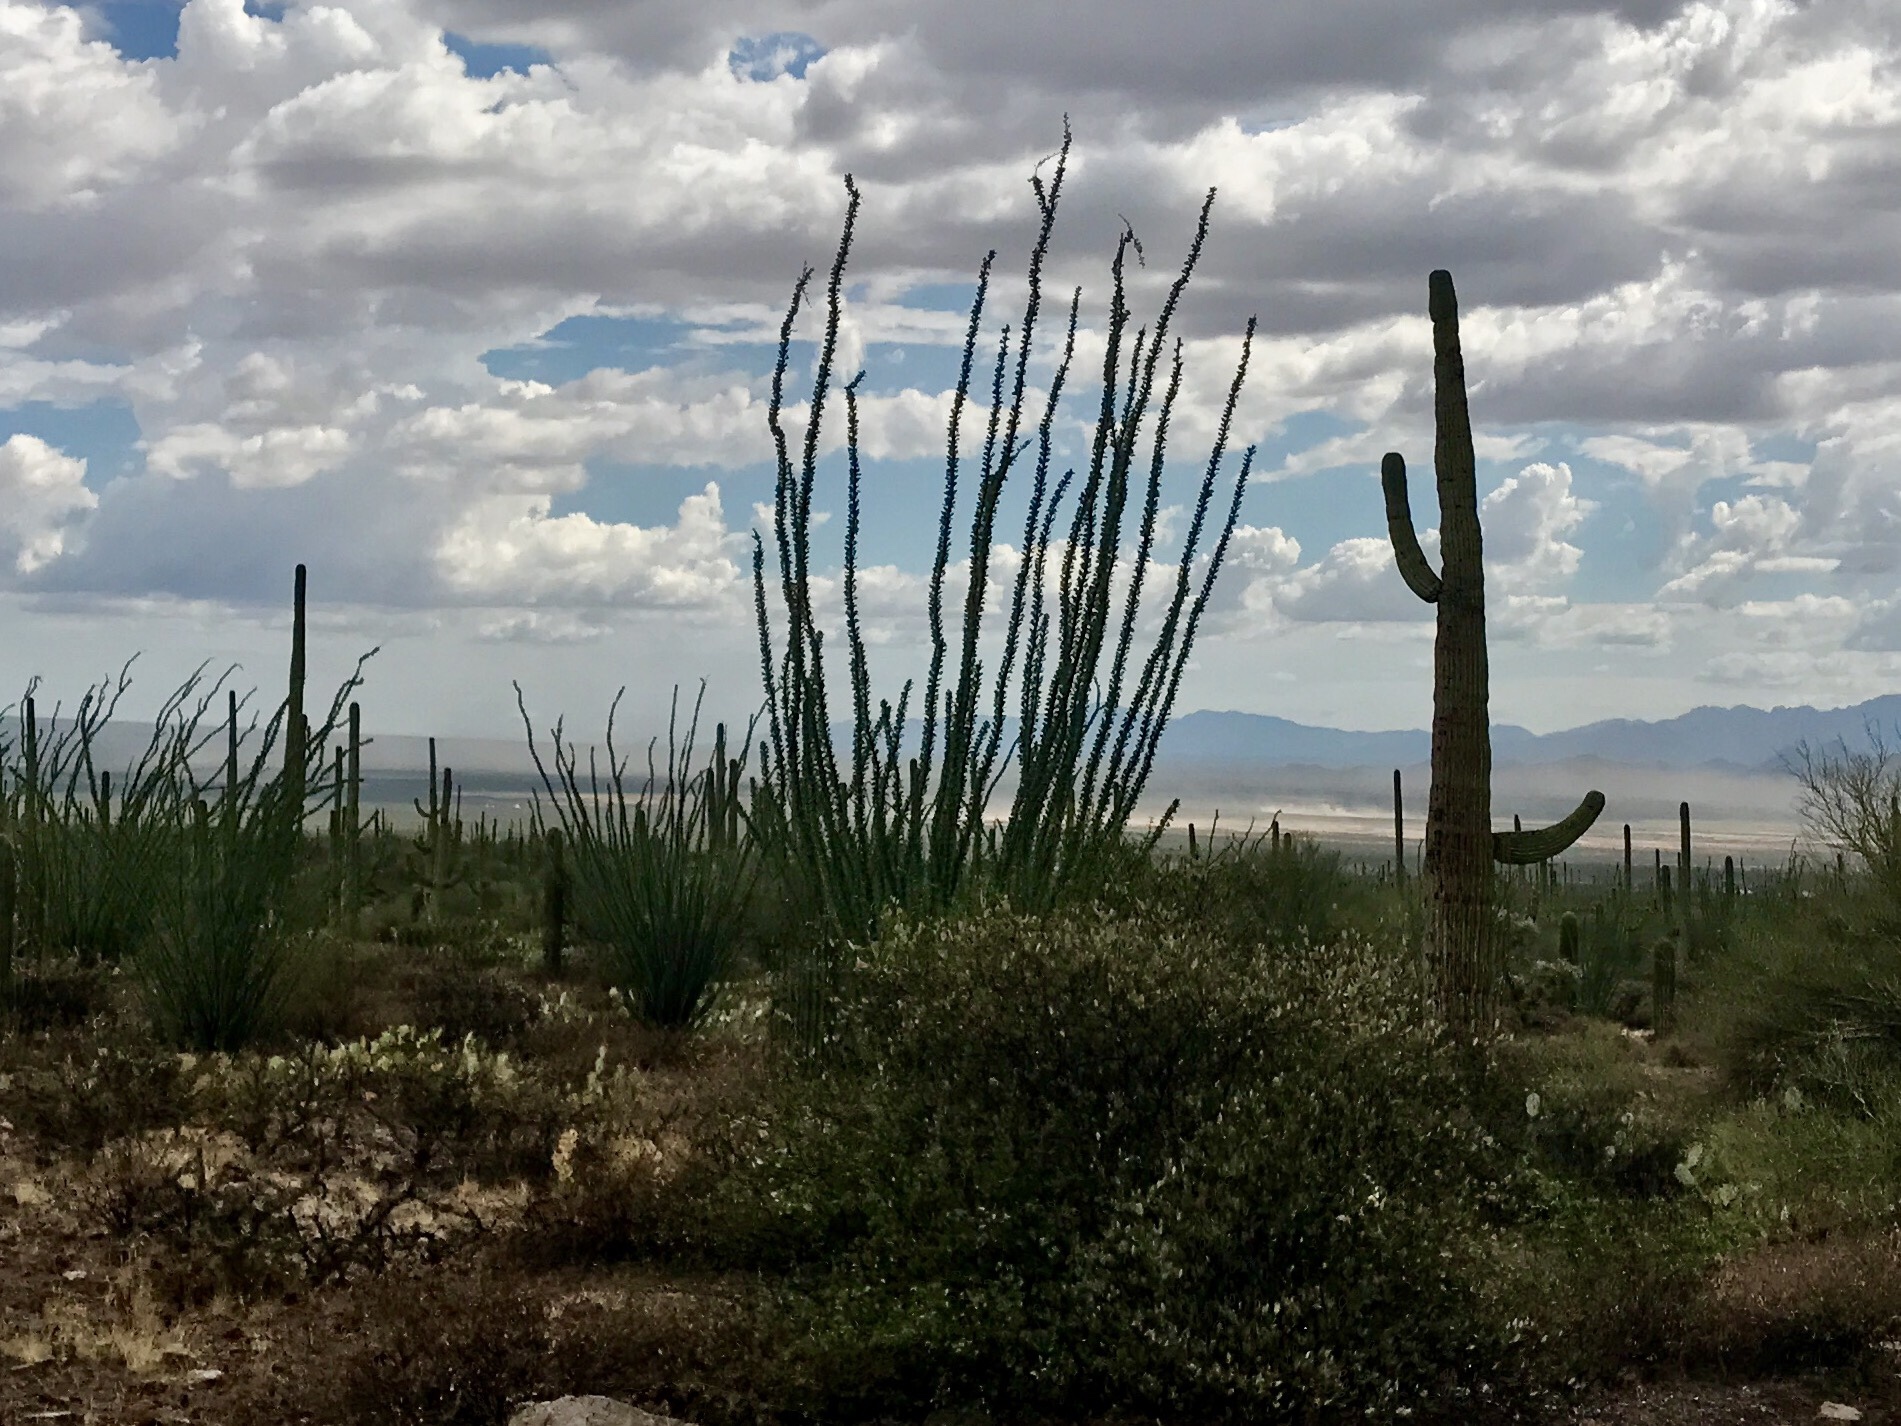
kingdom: Plantae
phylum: Tracheophyta
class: Magnoliopsida
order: Ericales
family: Fouquieriaceae
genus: Fouquieria
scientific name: Fouquieria splendens
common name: Vine-cactus
